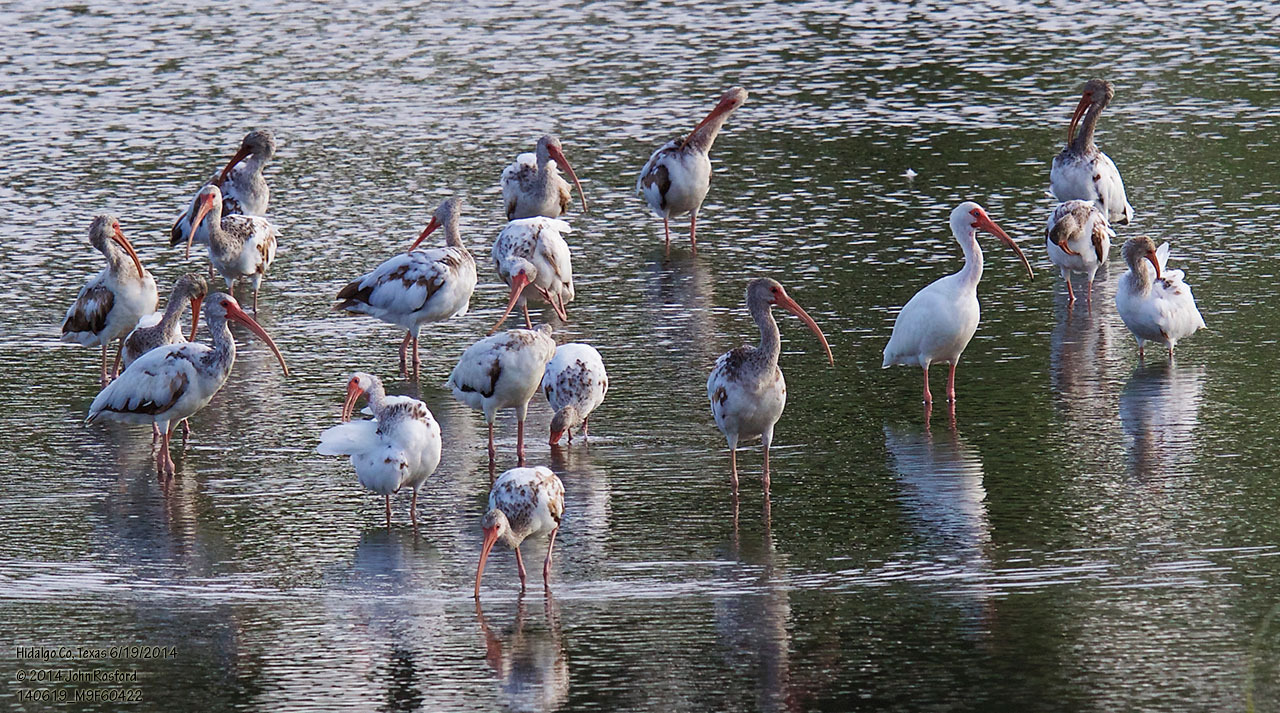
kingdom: Animalia
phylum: Chordata
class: Aves
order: Pelecaniformes
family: Threskiornithidae
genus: Eudocimus
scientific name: Eudocimus albus
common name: White ibis
